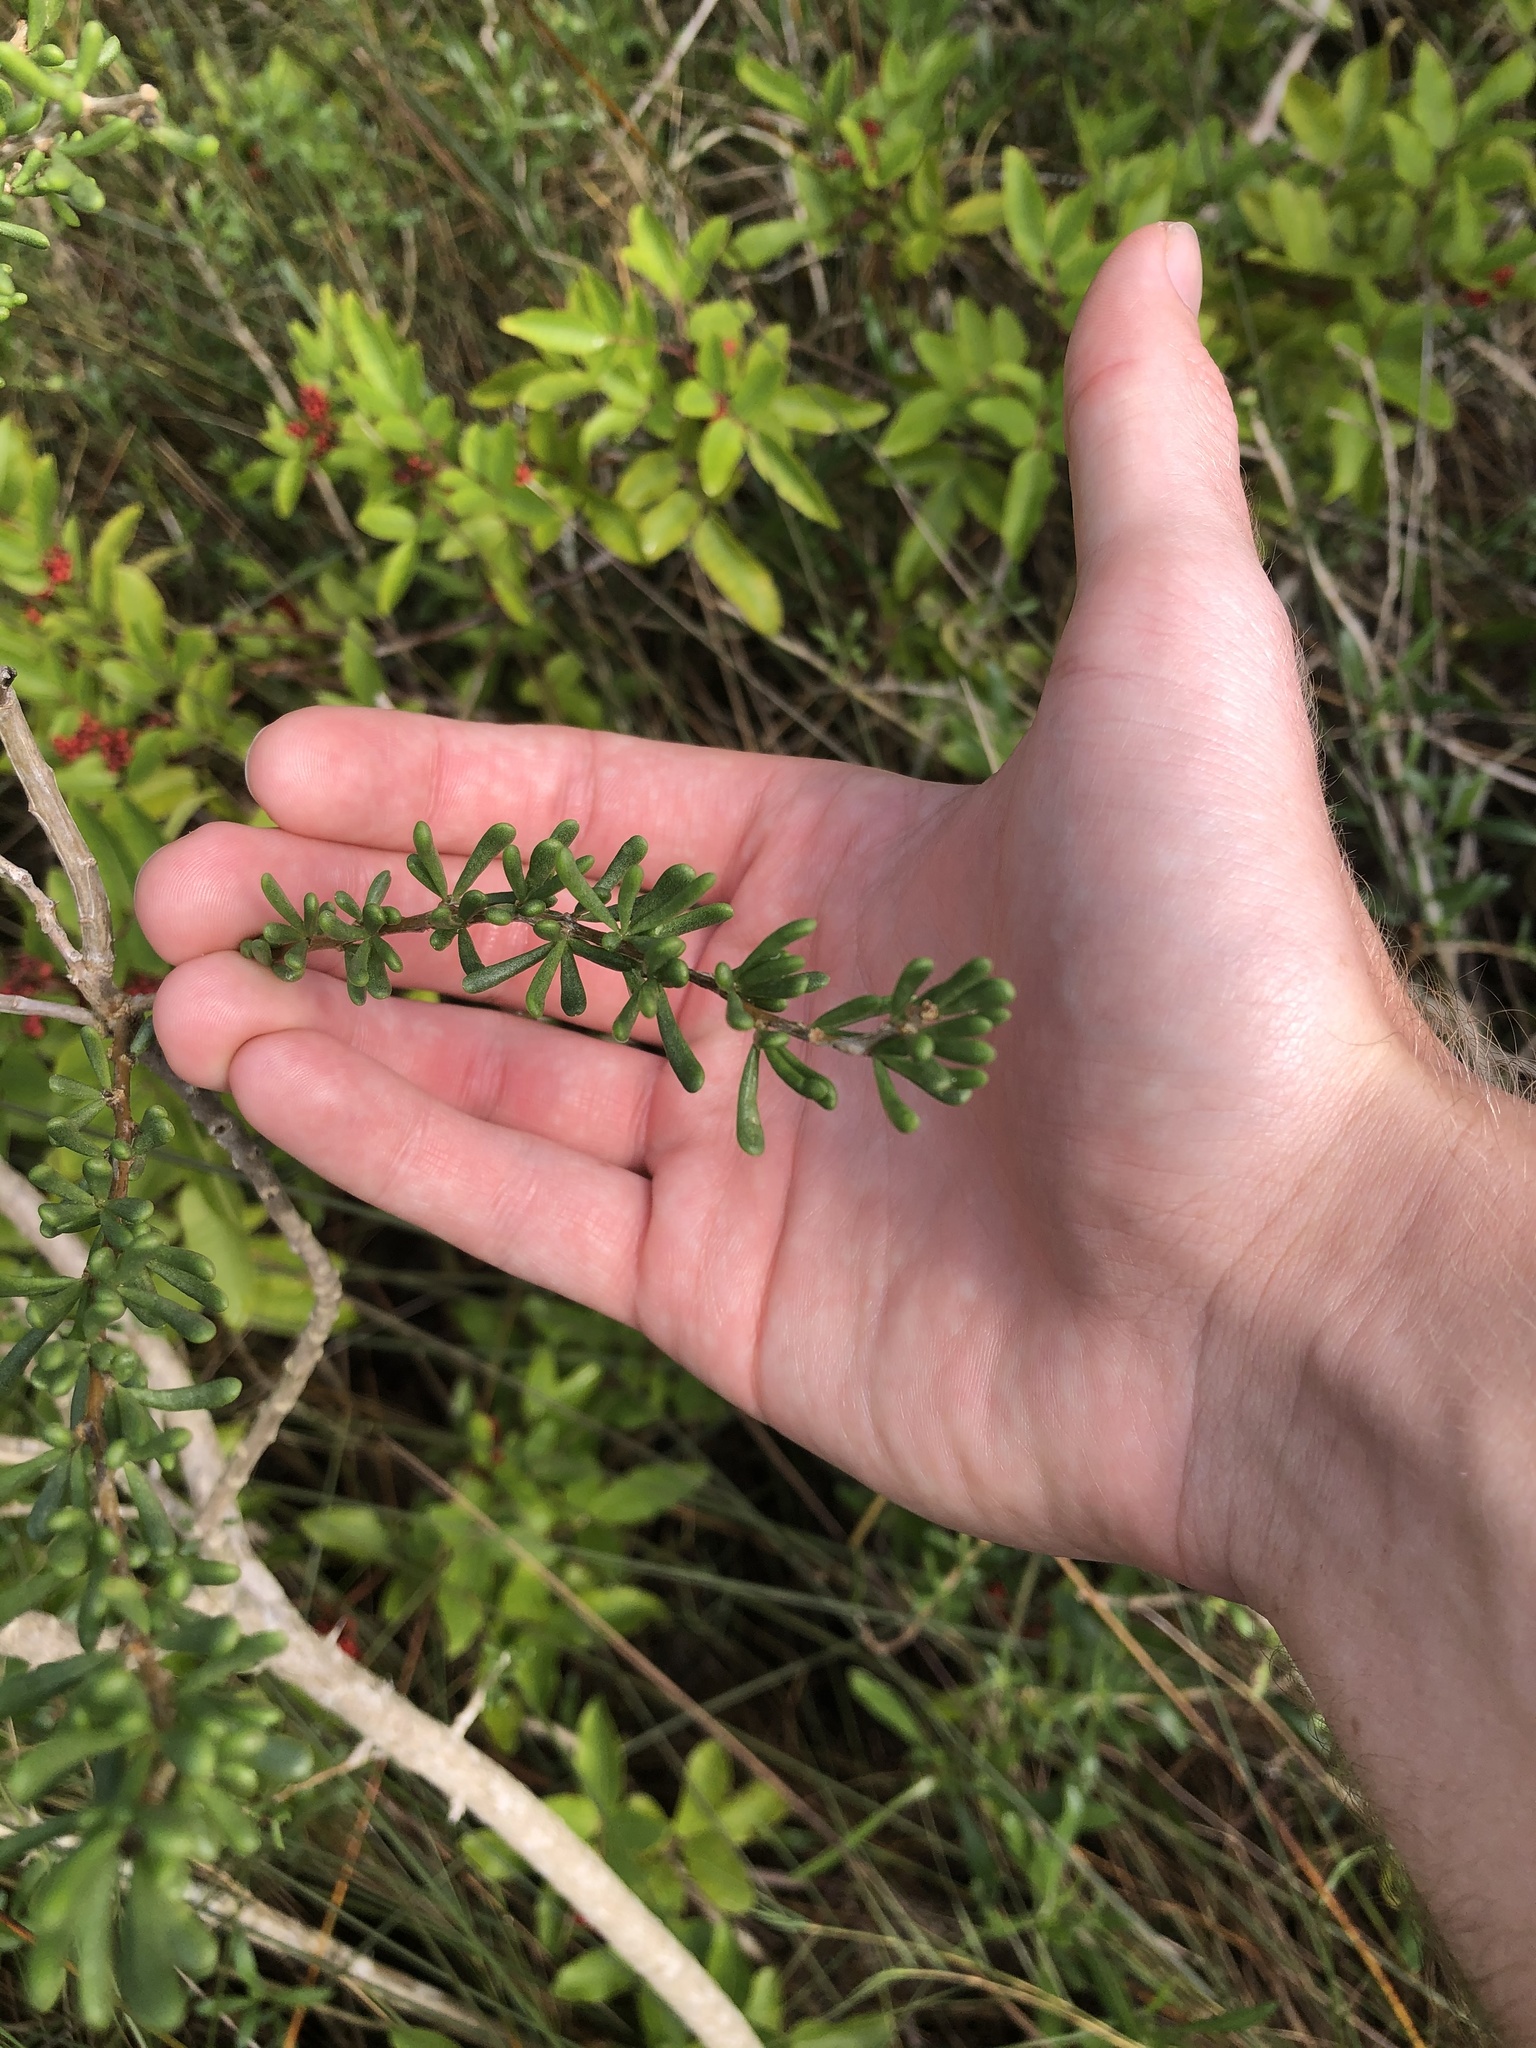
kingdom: Plantae
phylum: Tracheophyta
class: Magnoliopsida
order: Solanales
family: Solanaceae
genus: Lycium
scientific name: Lycium carolinianum
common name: Christmasberry
